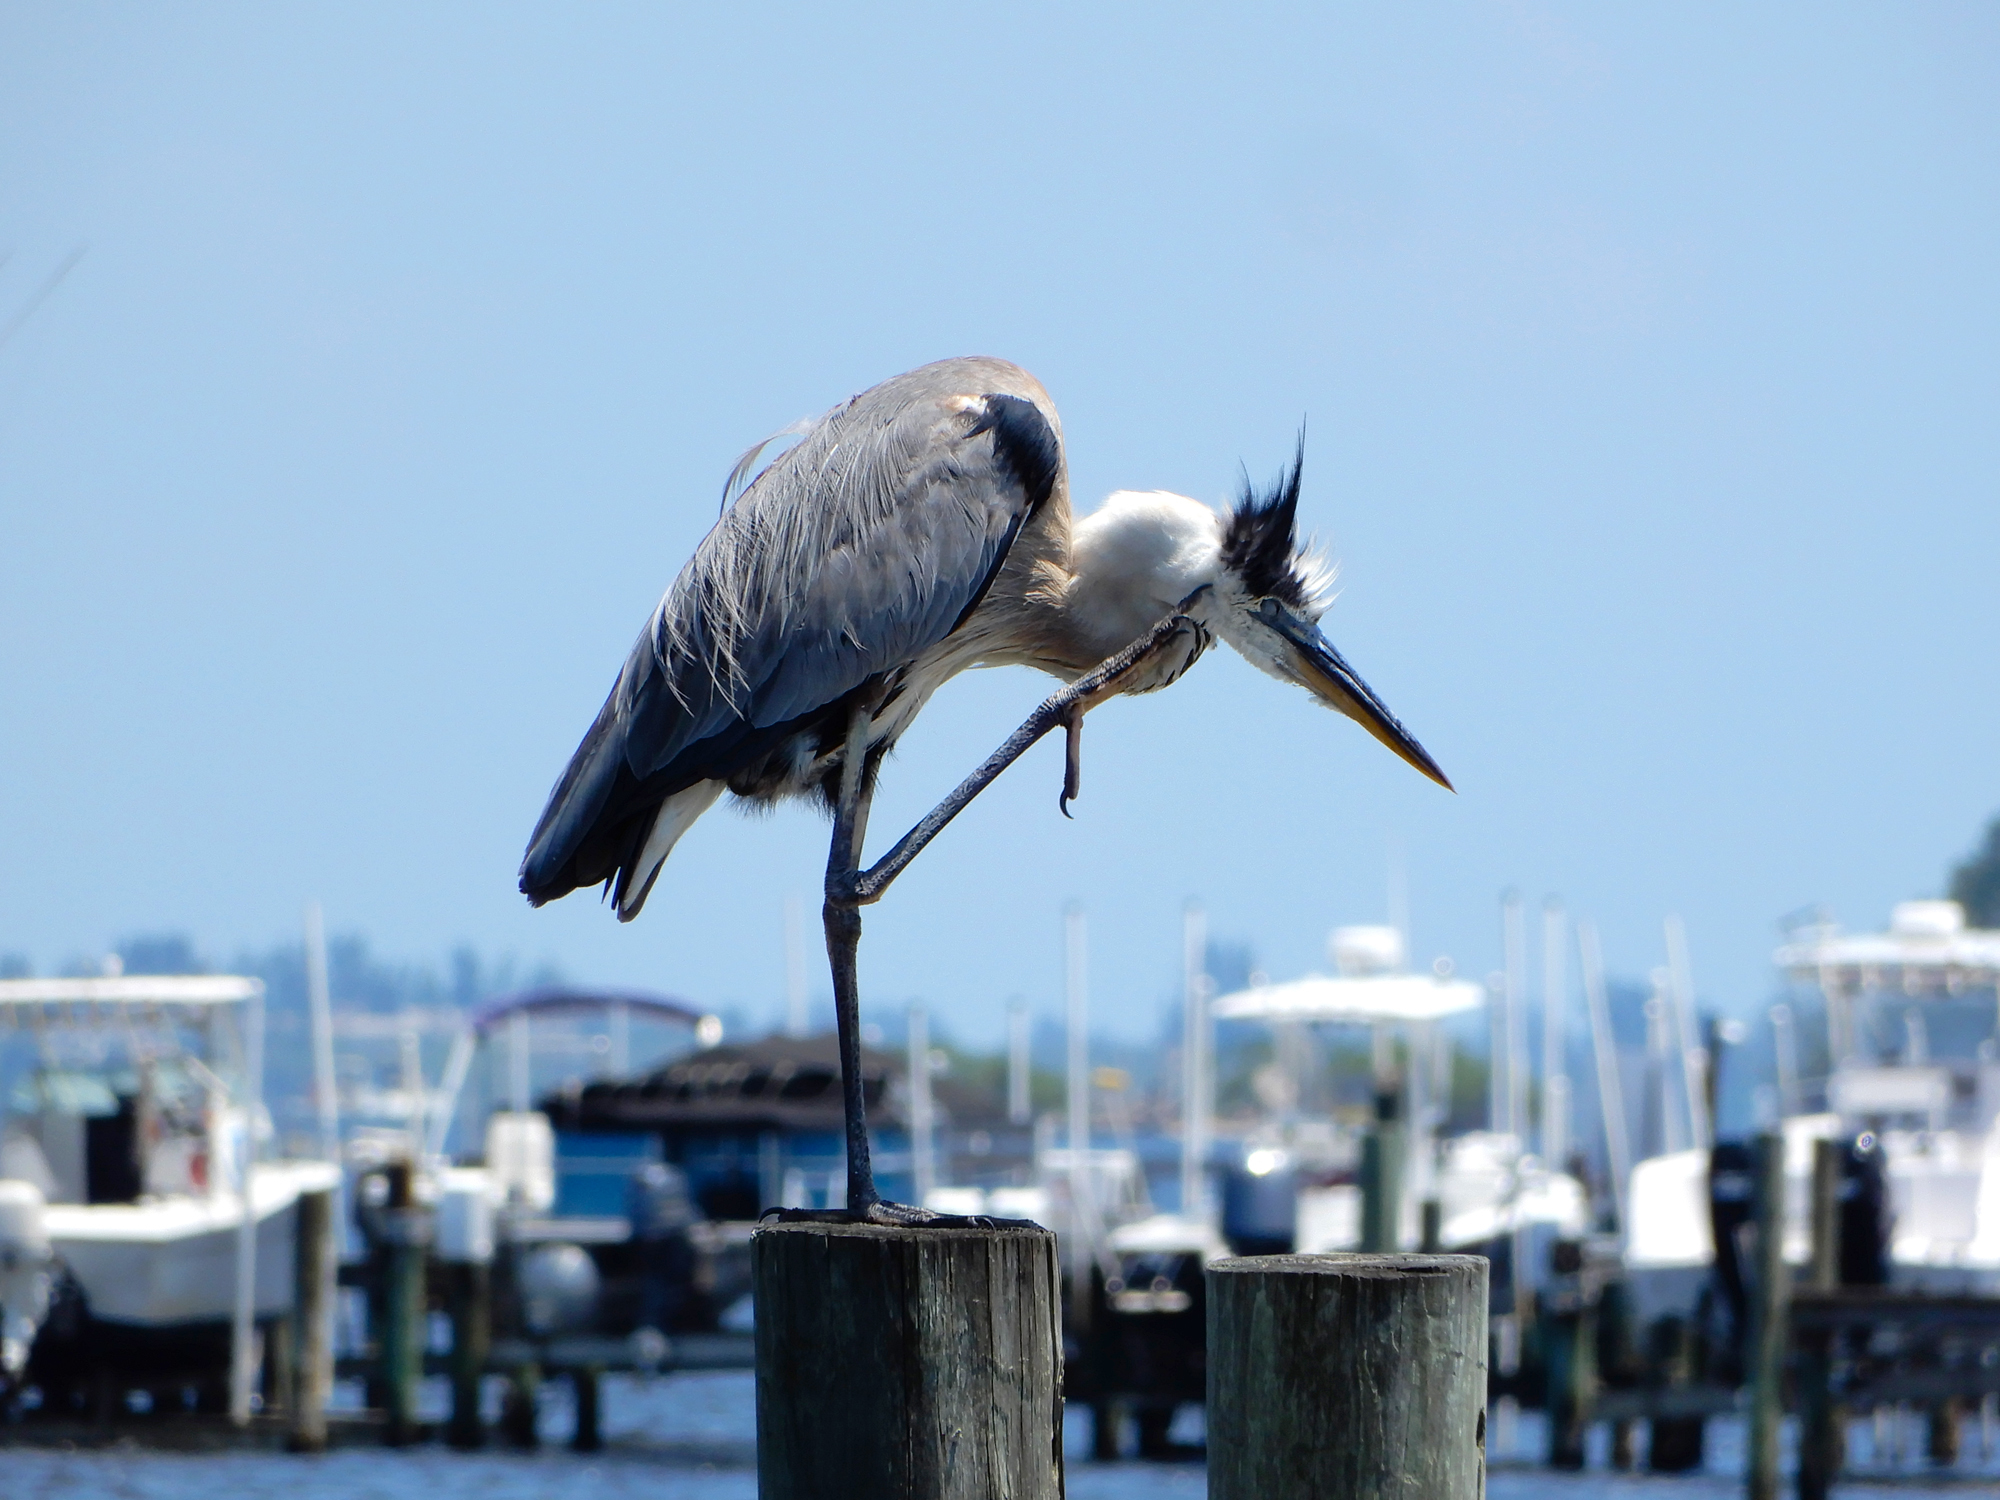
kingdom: Animalia
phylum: Chordata
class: Aves
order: Pelecaniformes
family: Ardeidae
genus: Ardea
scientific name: Ardea herodias
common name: Great blue heron
